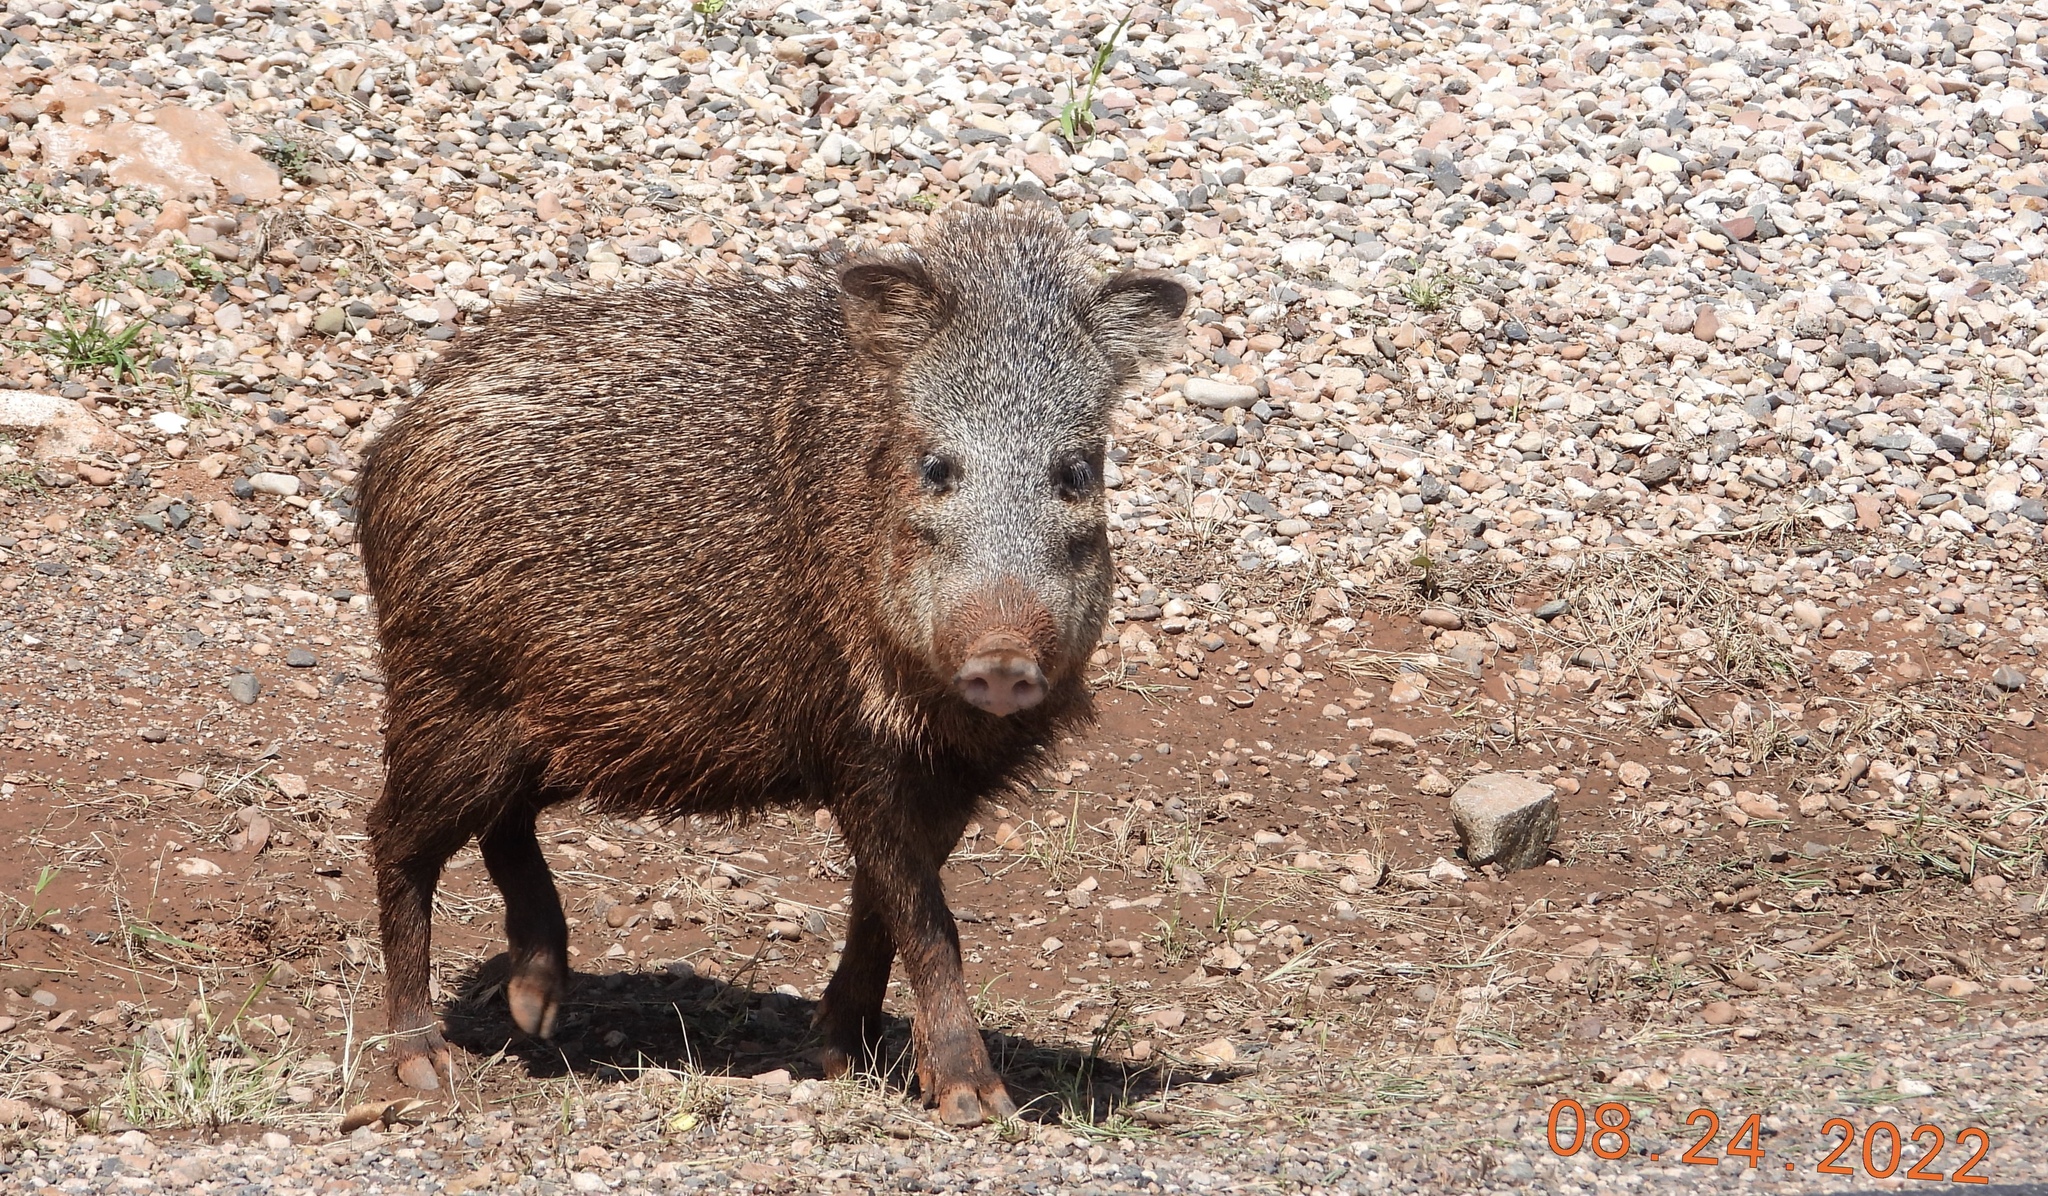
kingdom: Animalia
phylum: Chordata
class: Mammalia
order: Artiodactyla
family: Tayassuidae
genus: Pecari
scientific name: Pecari tajacu
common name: Collared peccary
